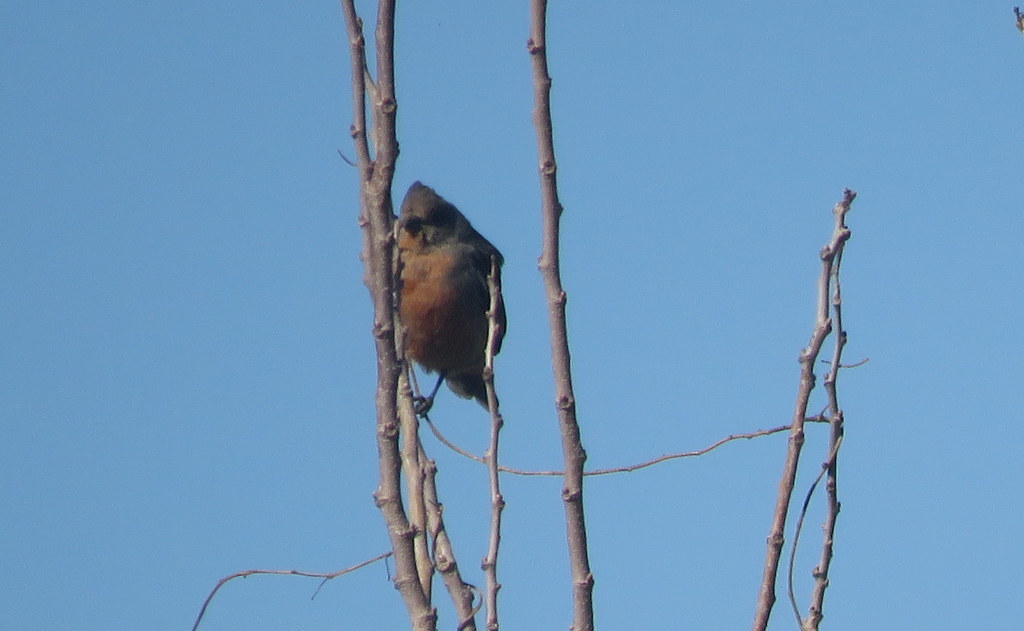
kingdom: Animalia
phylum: Chordata
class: Aves
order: Passeriformes
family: Cotingidae
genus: Phytotoma
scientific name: Phytotoma rutila
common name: White-tipped plantcutter
